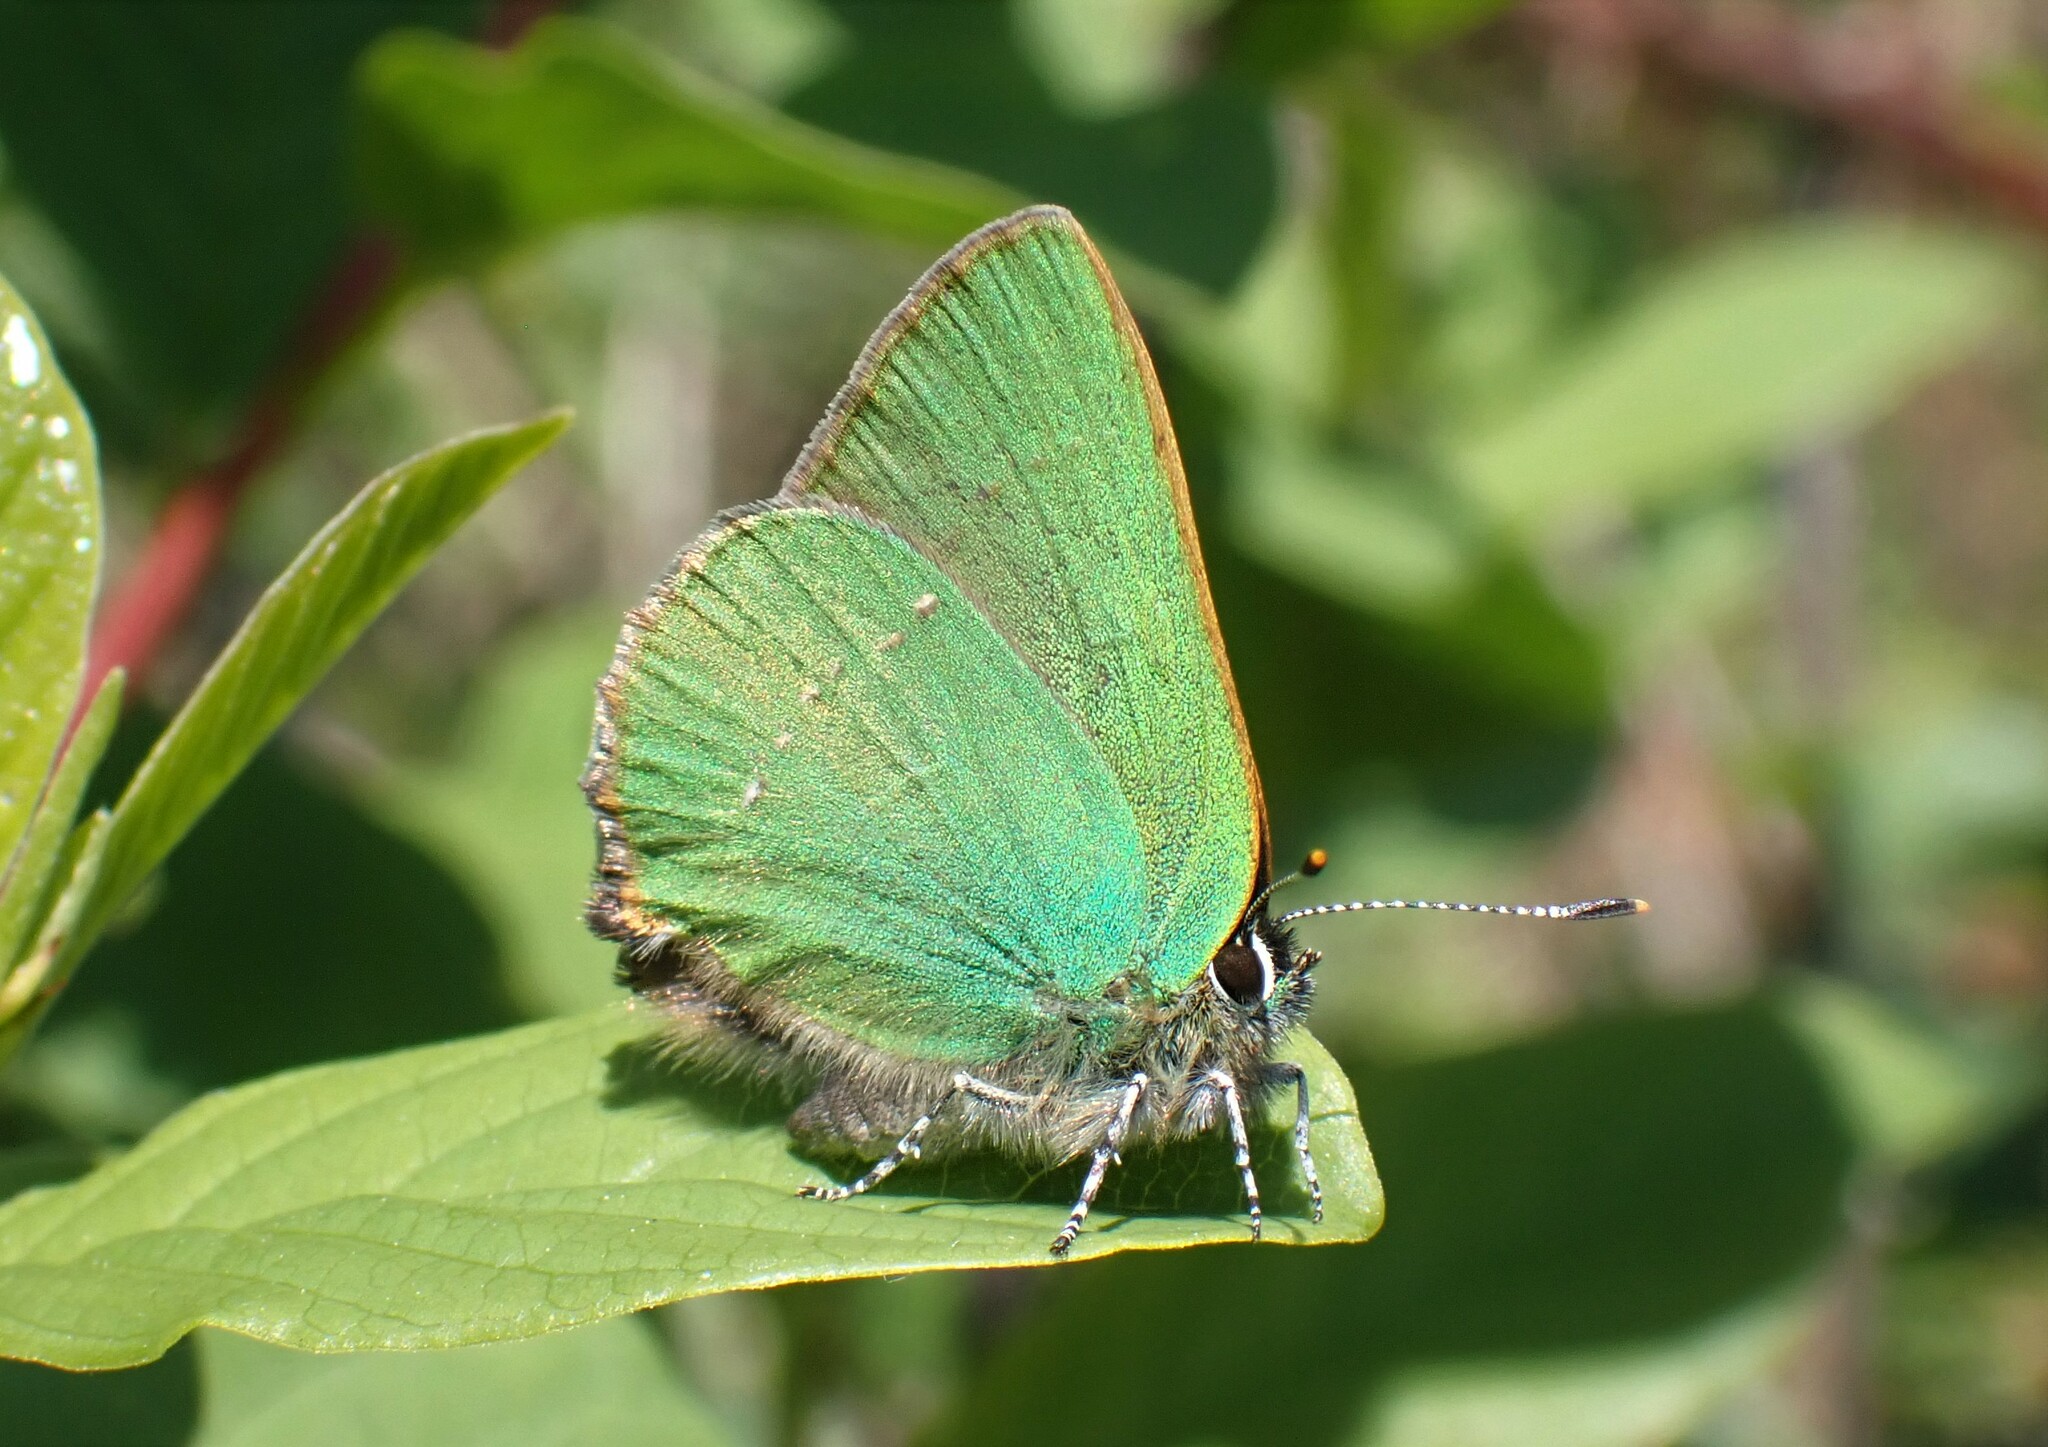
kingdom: Animalia
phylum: Arthropoda
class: Insecta
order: Lepidoptera
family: Lycaenidae
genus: Callophrys
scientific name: Callophrys rubi
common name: Green hairstreak
